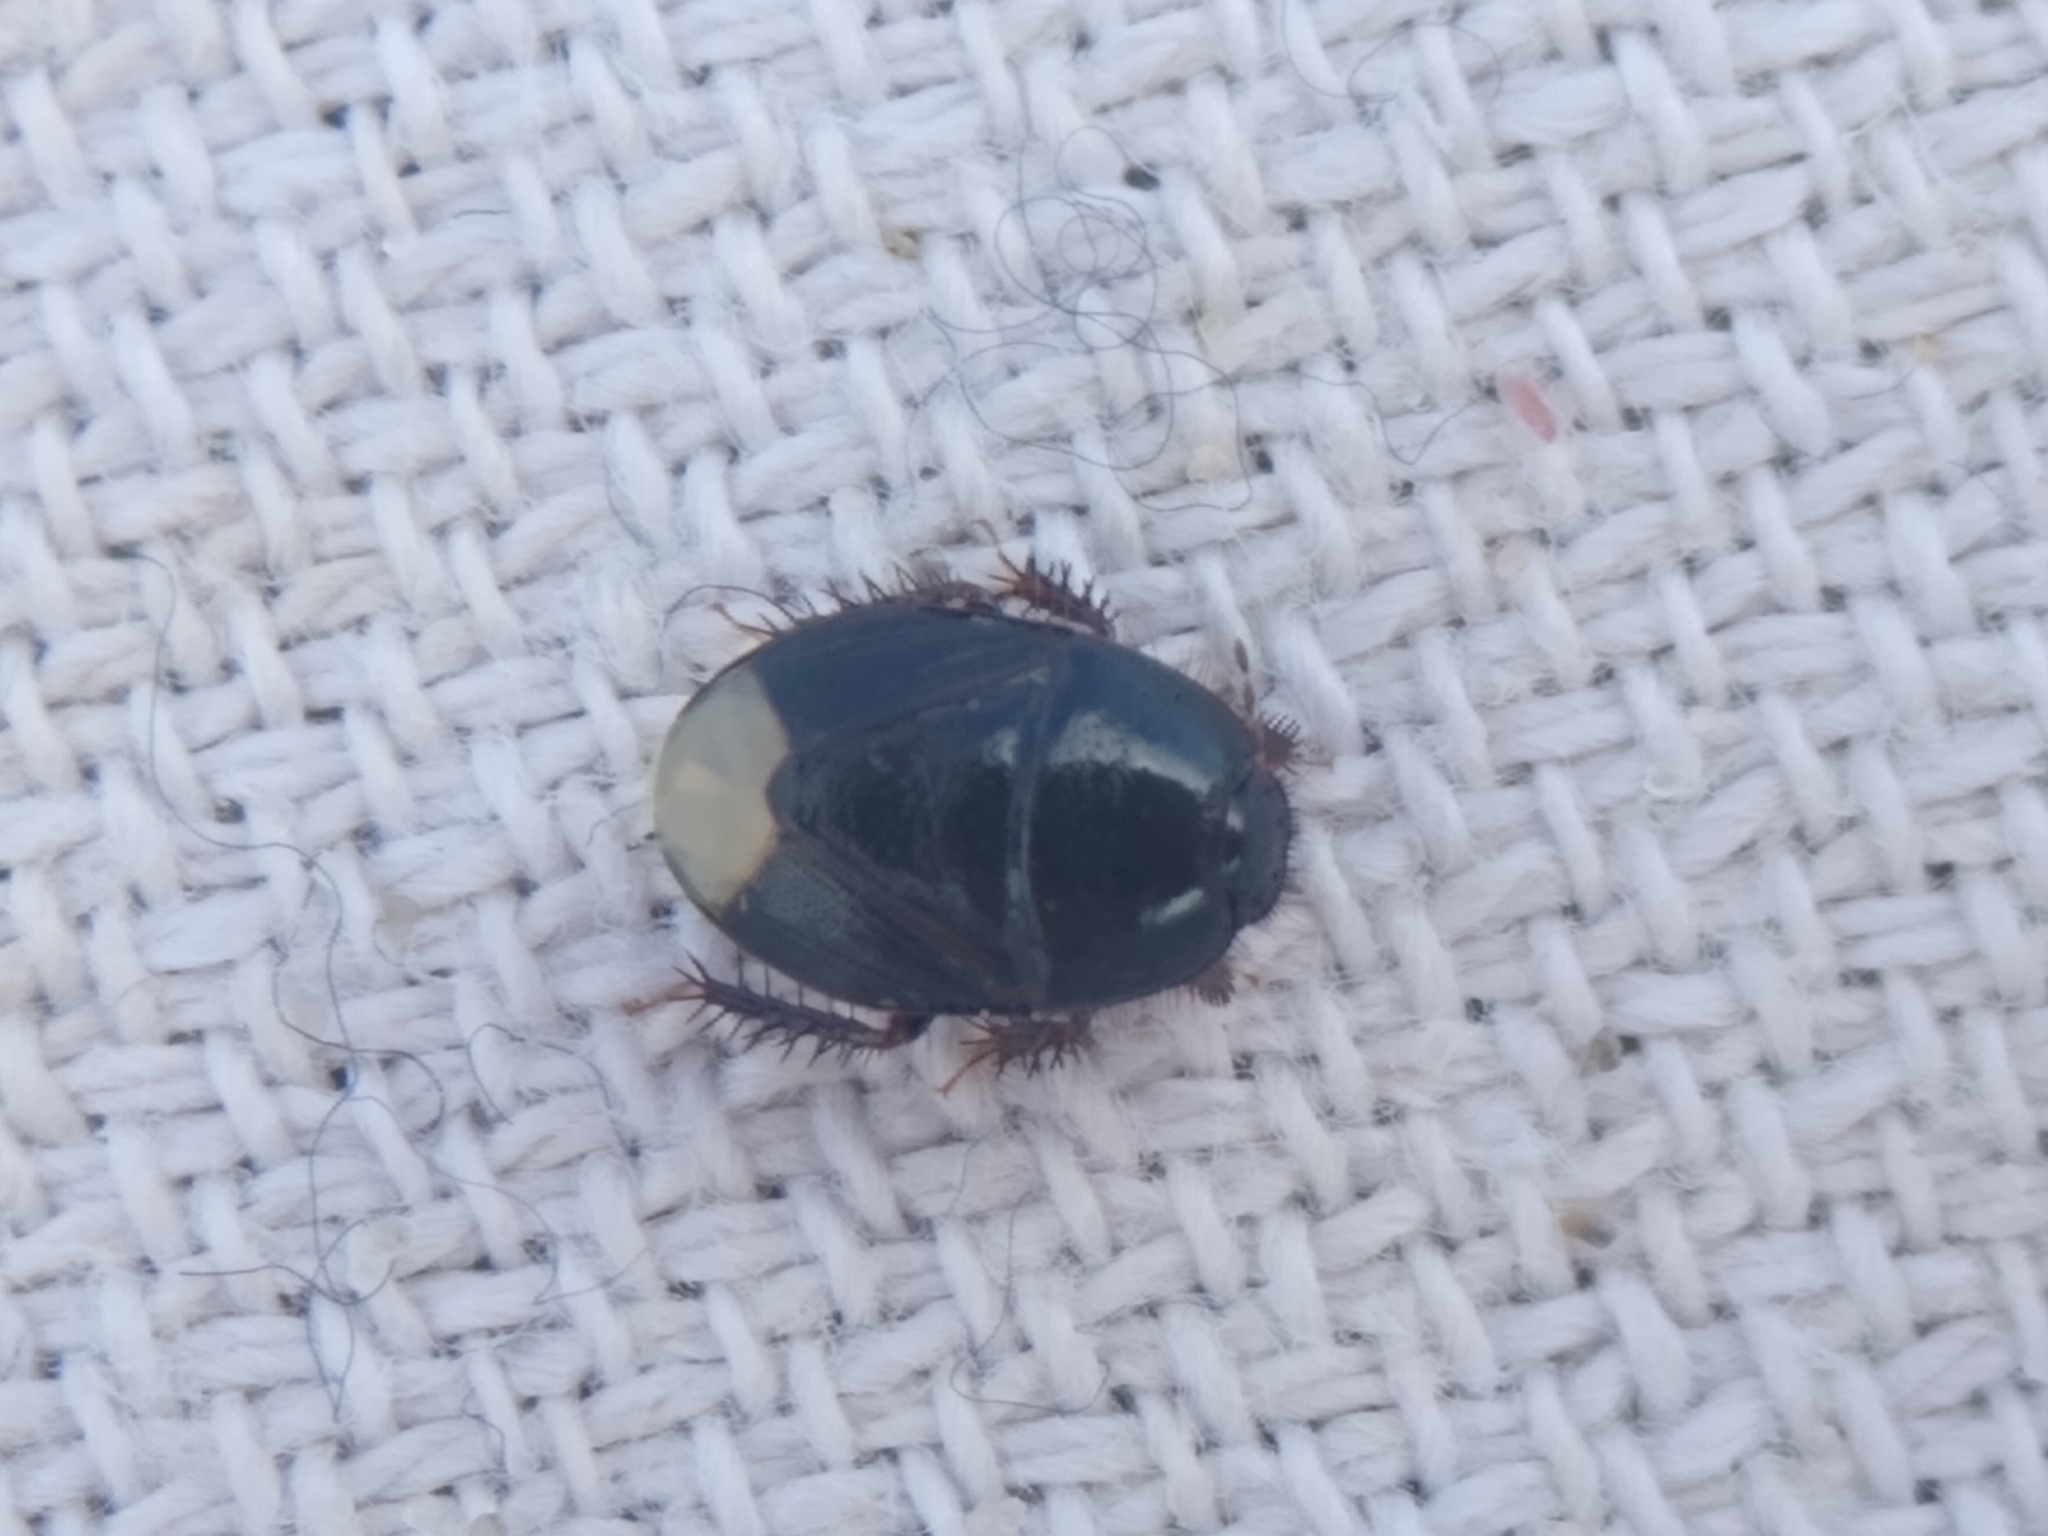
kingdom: Animalia
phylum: Arthropoda
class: Insecta
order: Hemiptera
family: Cydnidae
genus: Microporus
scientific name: Microporus nigrita
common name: Burrower bug
